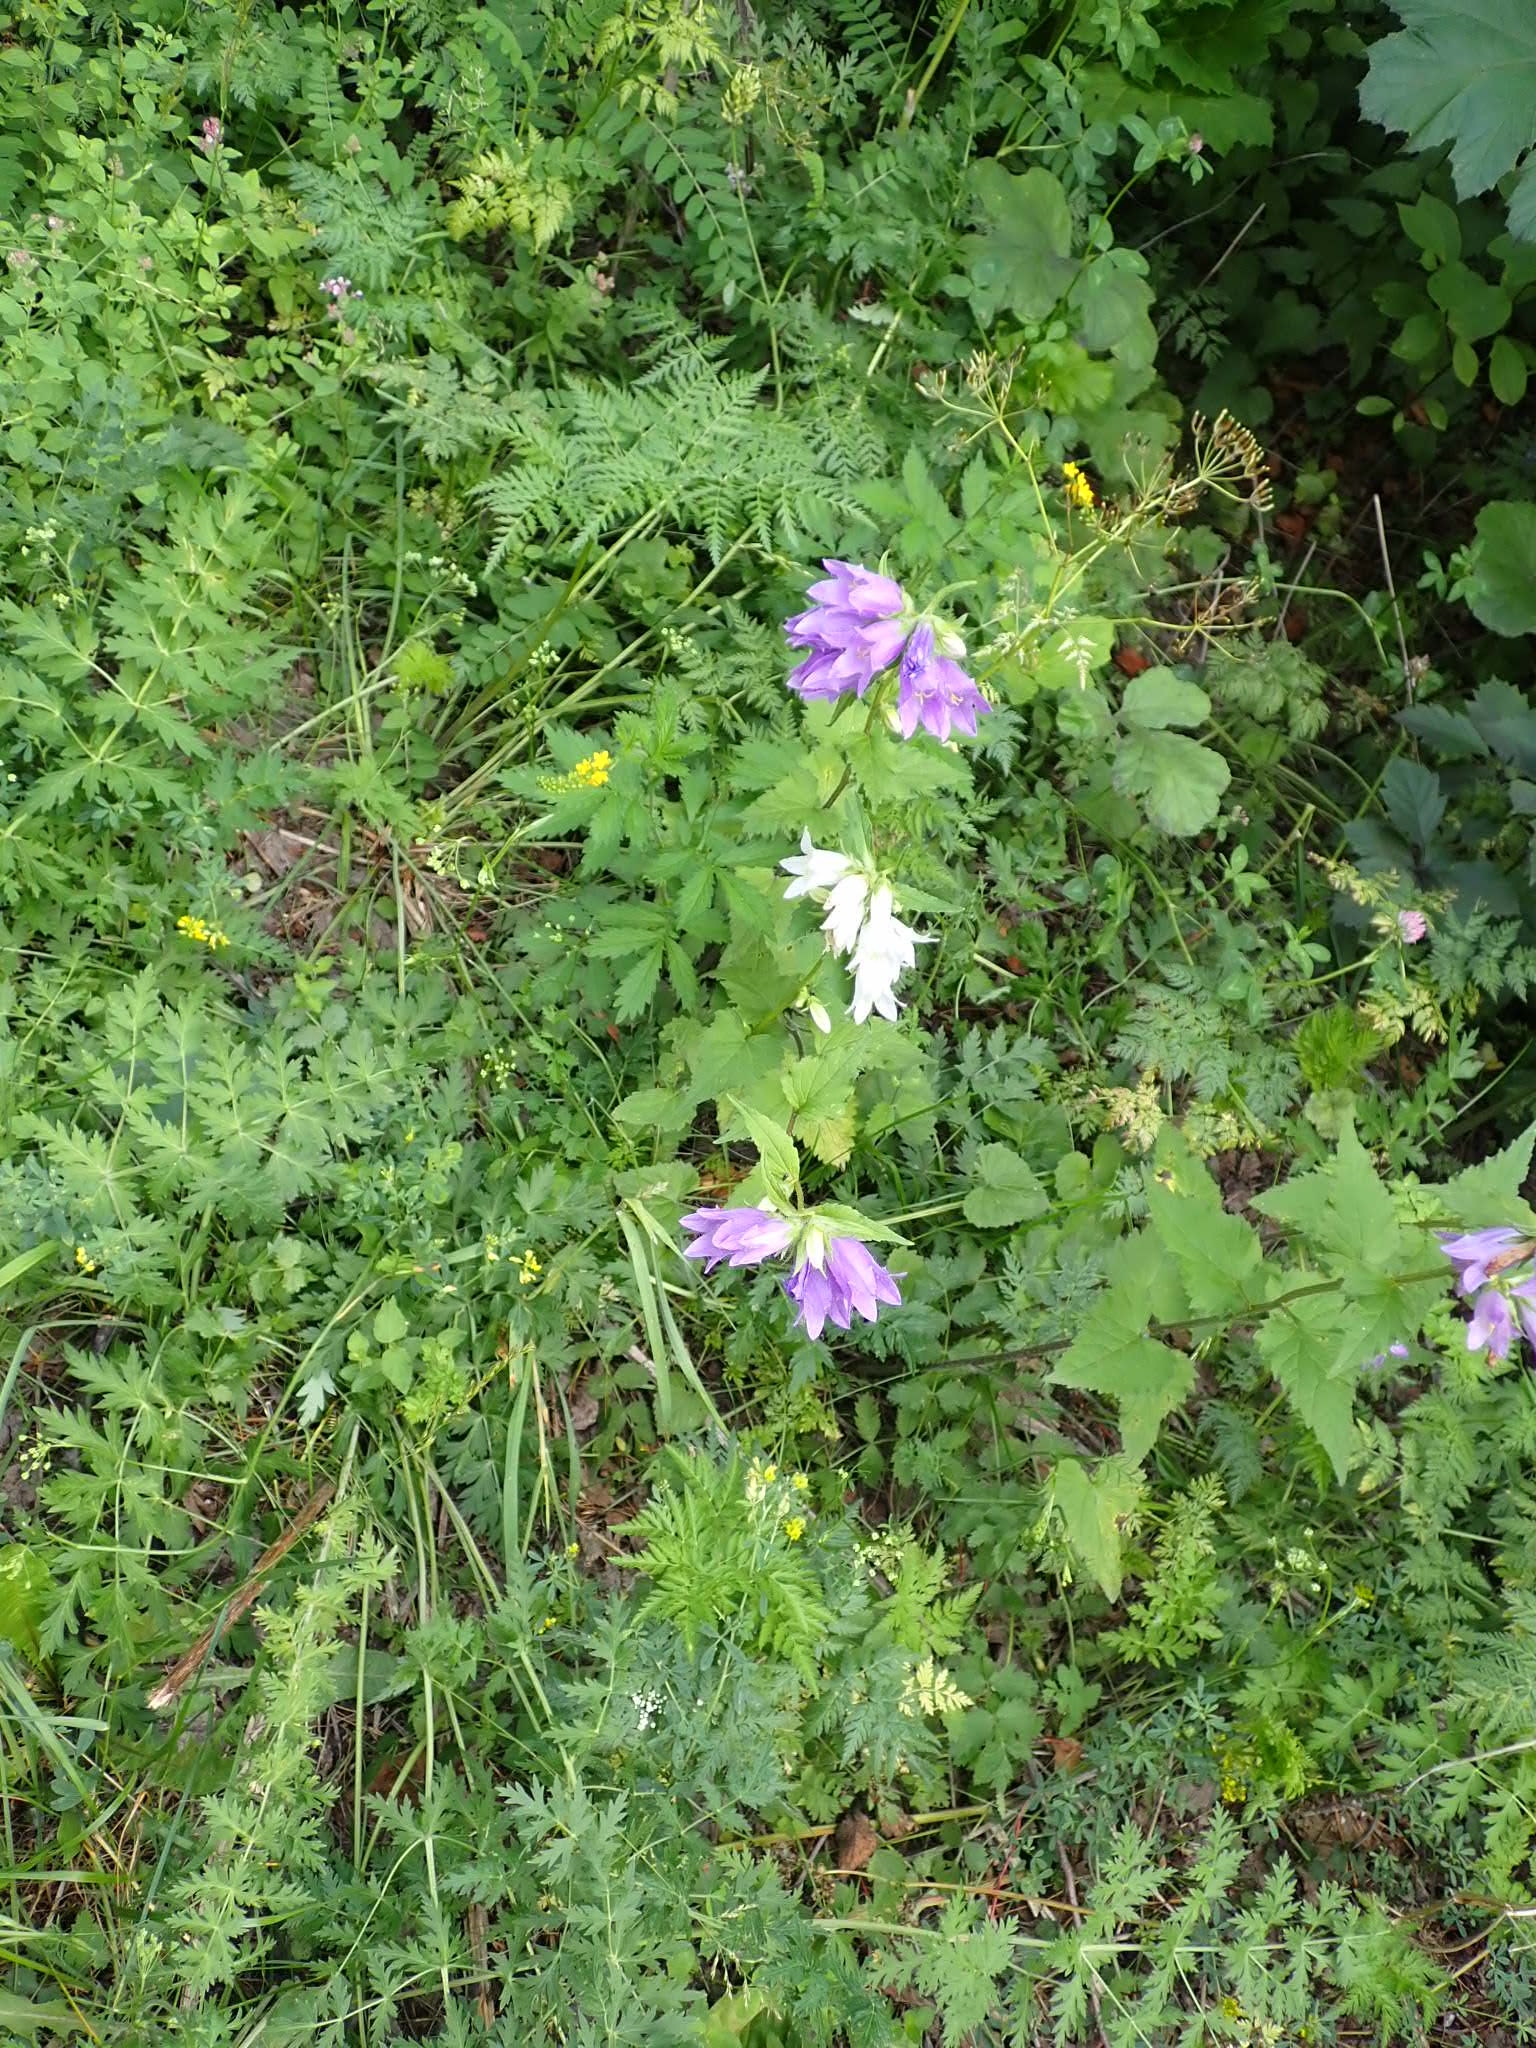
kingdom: Plantae
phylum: Tracheophyta
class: Magnoliopsida
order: Asterales
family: Campanulaceae
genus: Campanula
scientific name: Campanula trachelium
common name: Nettle-leaved bellflower
